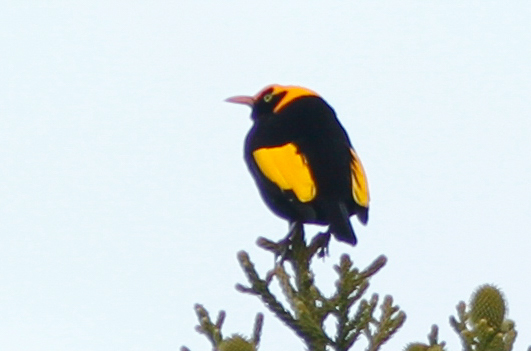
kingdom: Animalia
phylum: Chordata
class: Aves
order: Passeriformes
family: Ptilonorhynchidae
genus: Sericulus
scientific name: Sericulus chrysocephalus
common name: Regent bowerbird
